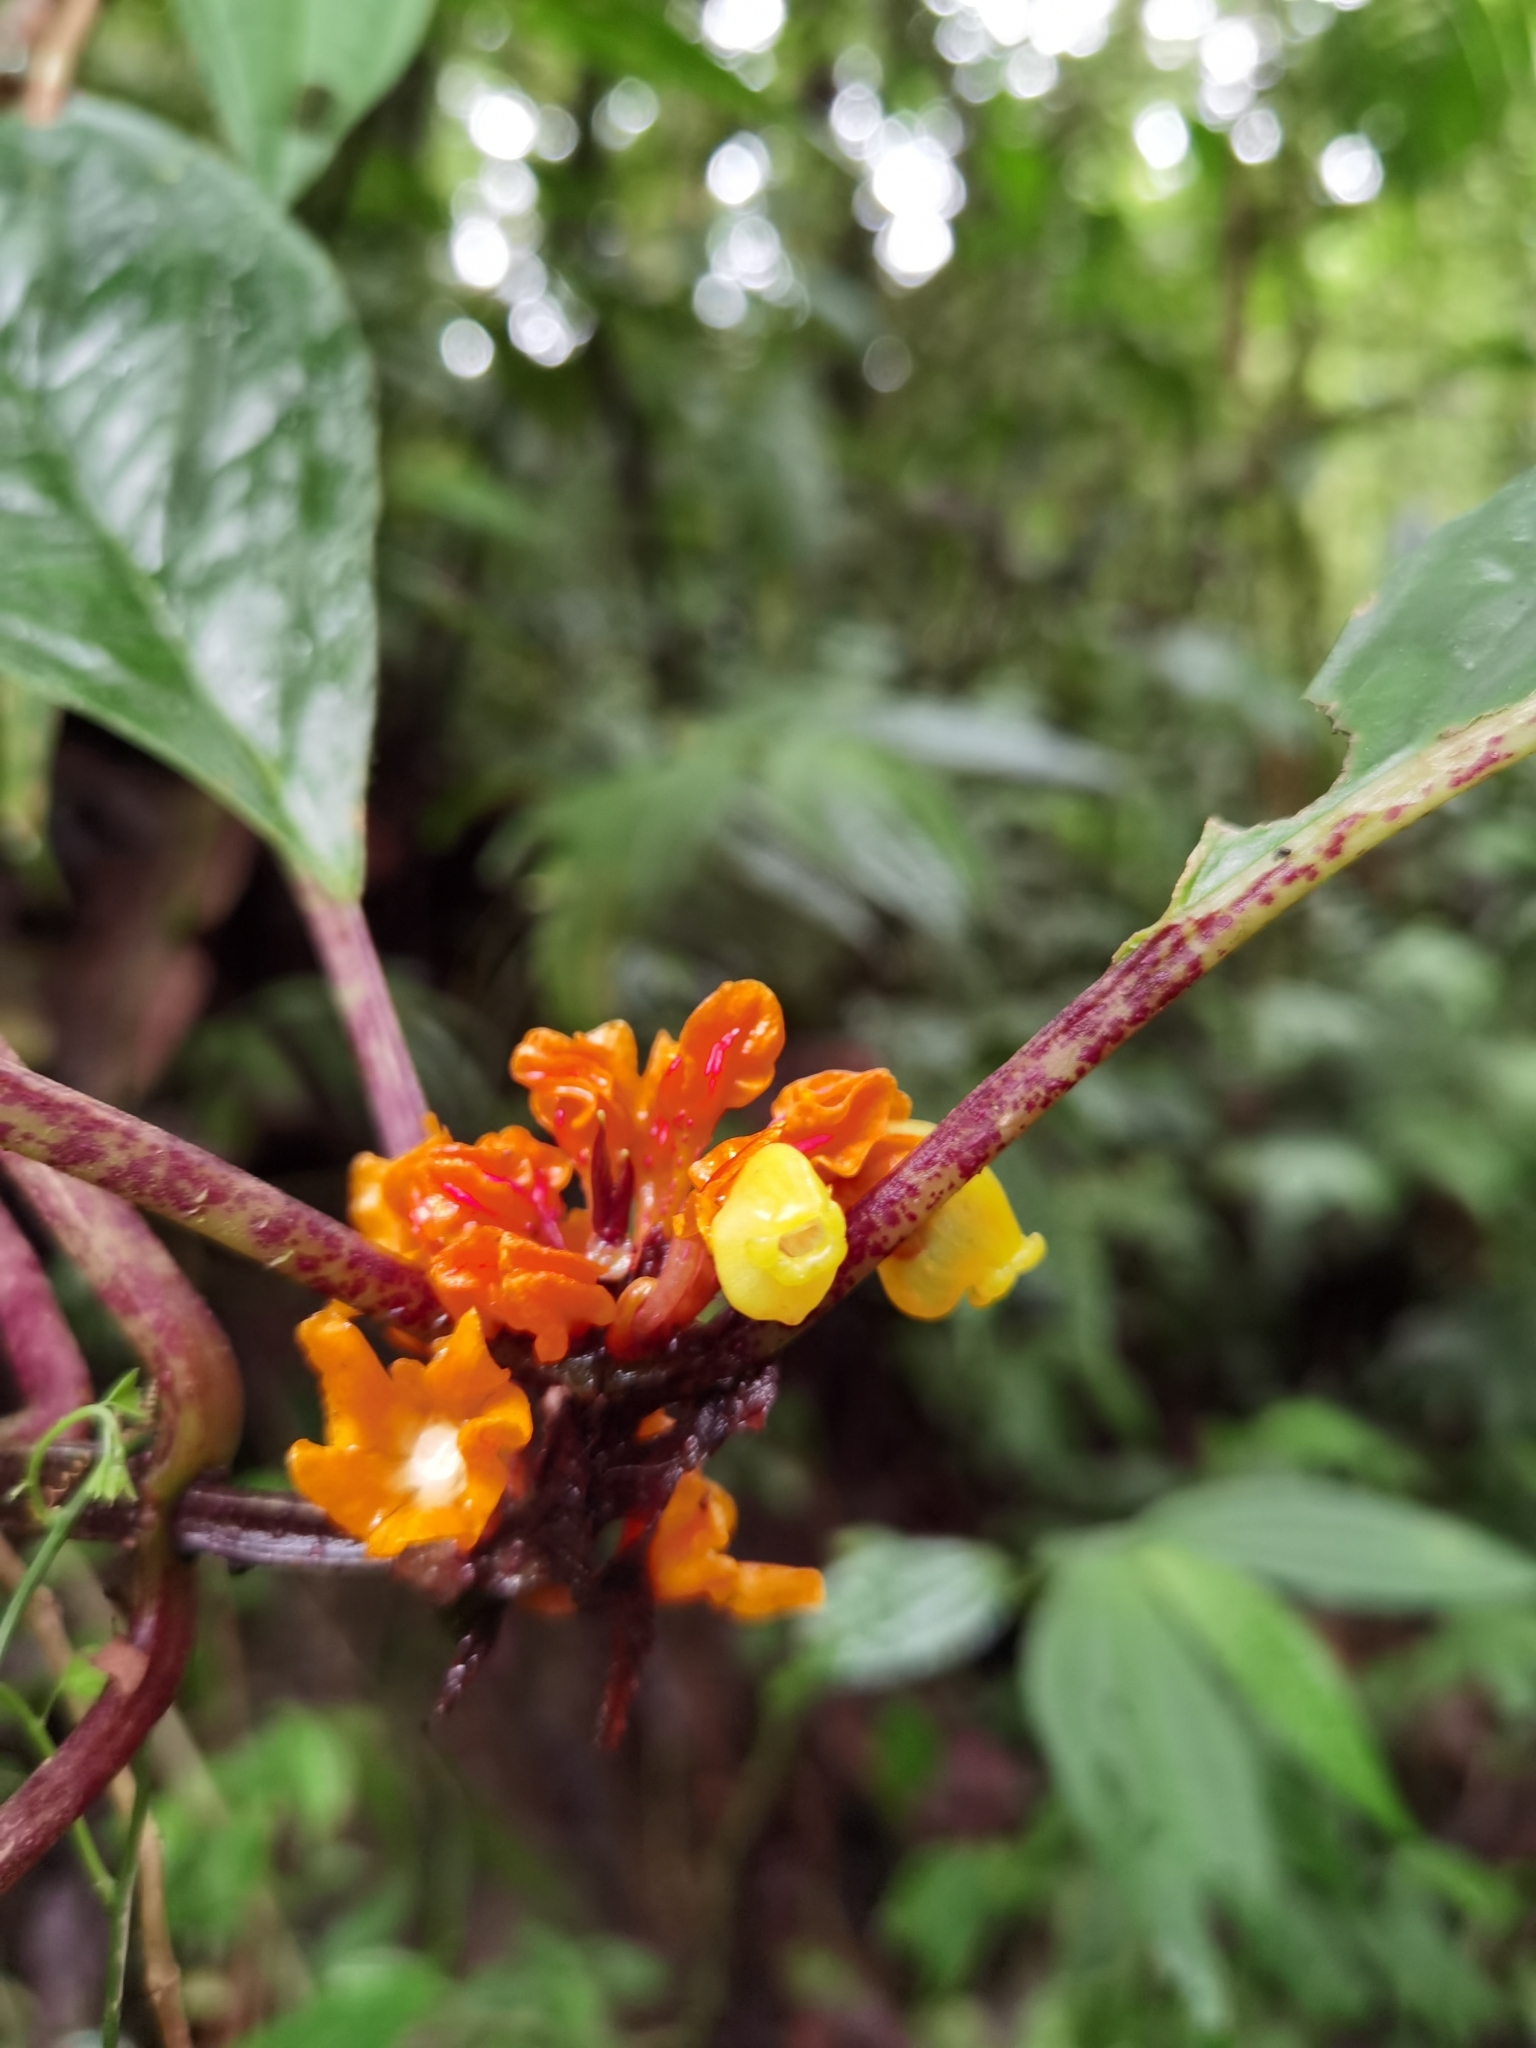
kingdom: Plantae
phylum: Tracheophyta
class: Magnoliopsida
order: Lamiales
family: Gesneriaceae
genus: Drymonia
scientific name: Drymonia ambonensis
